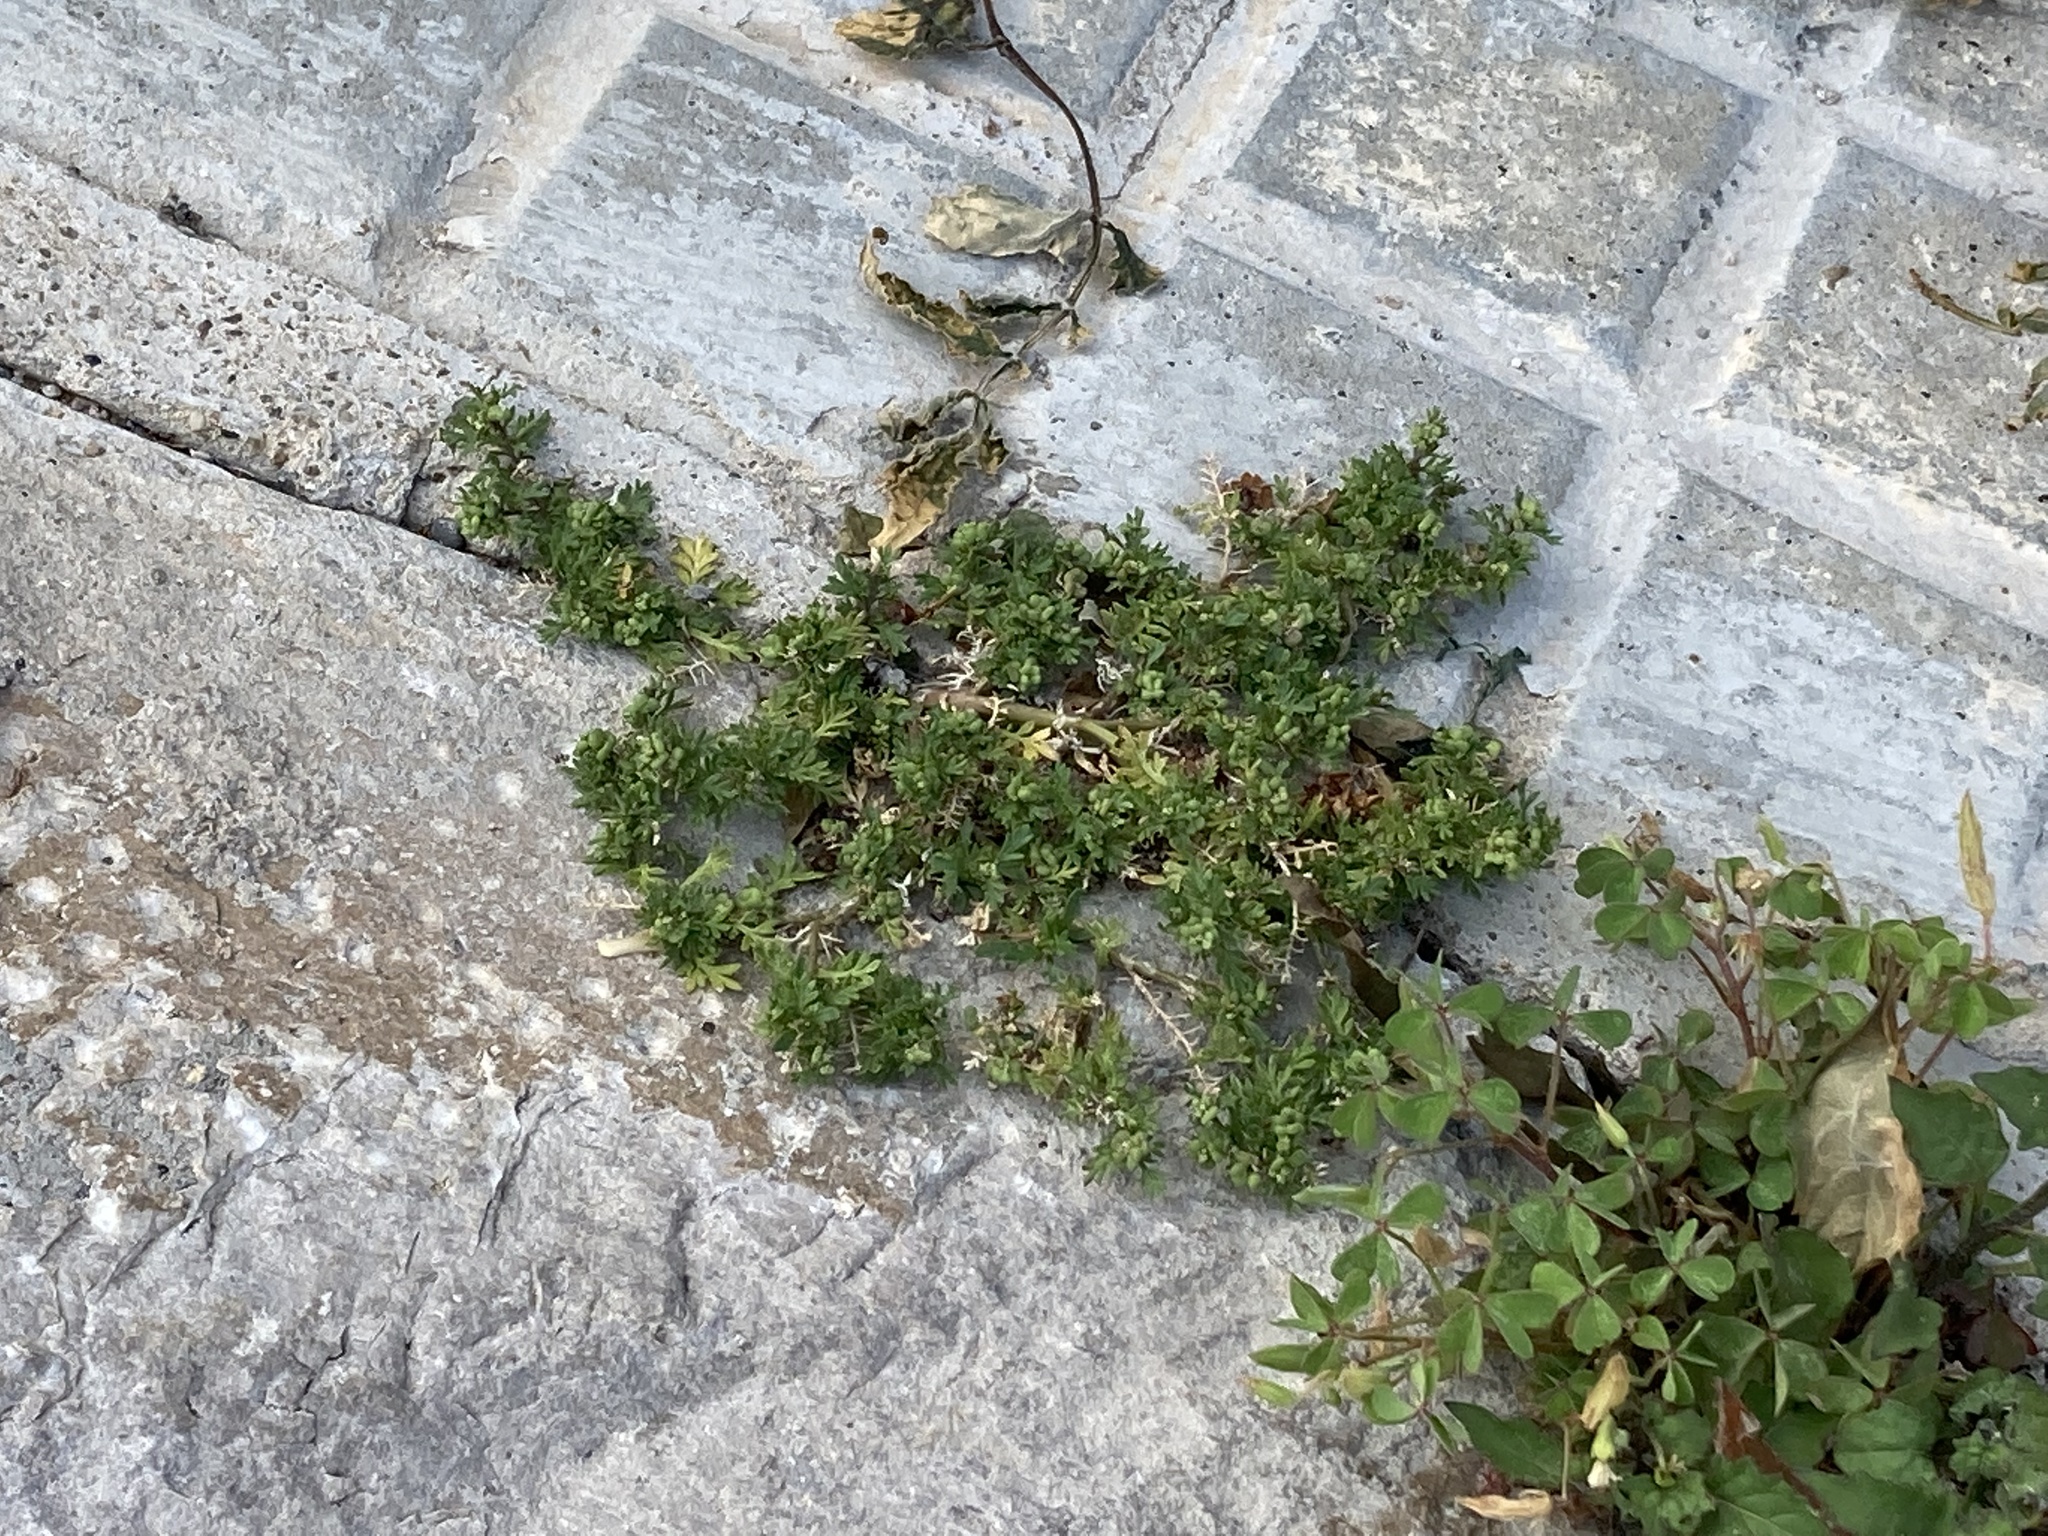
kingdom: Plantae
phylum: Tracheophyta
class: Magnoliopsida
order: Brassicales
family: Brassicaceae
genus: Lepidium
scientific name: Lepidium didymum
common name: Lesser swinecress
